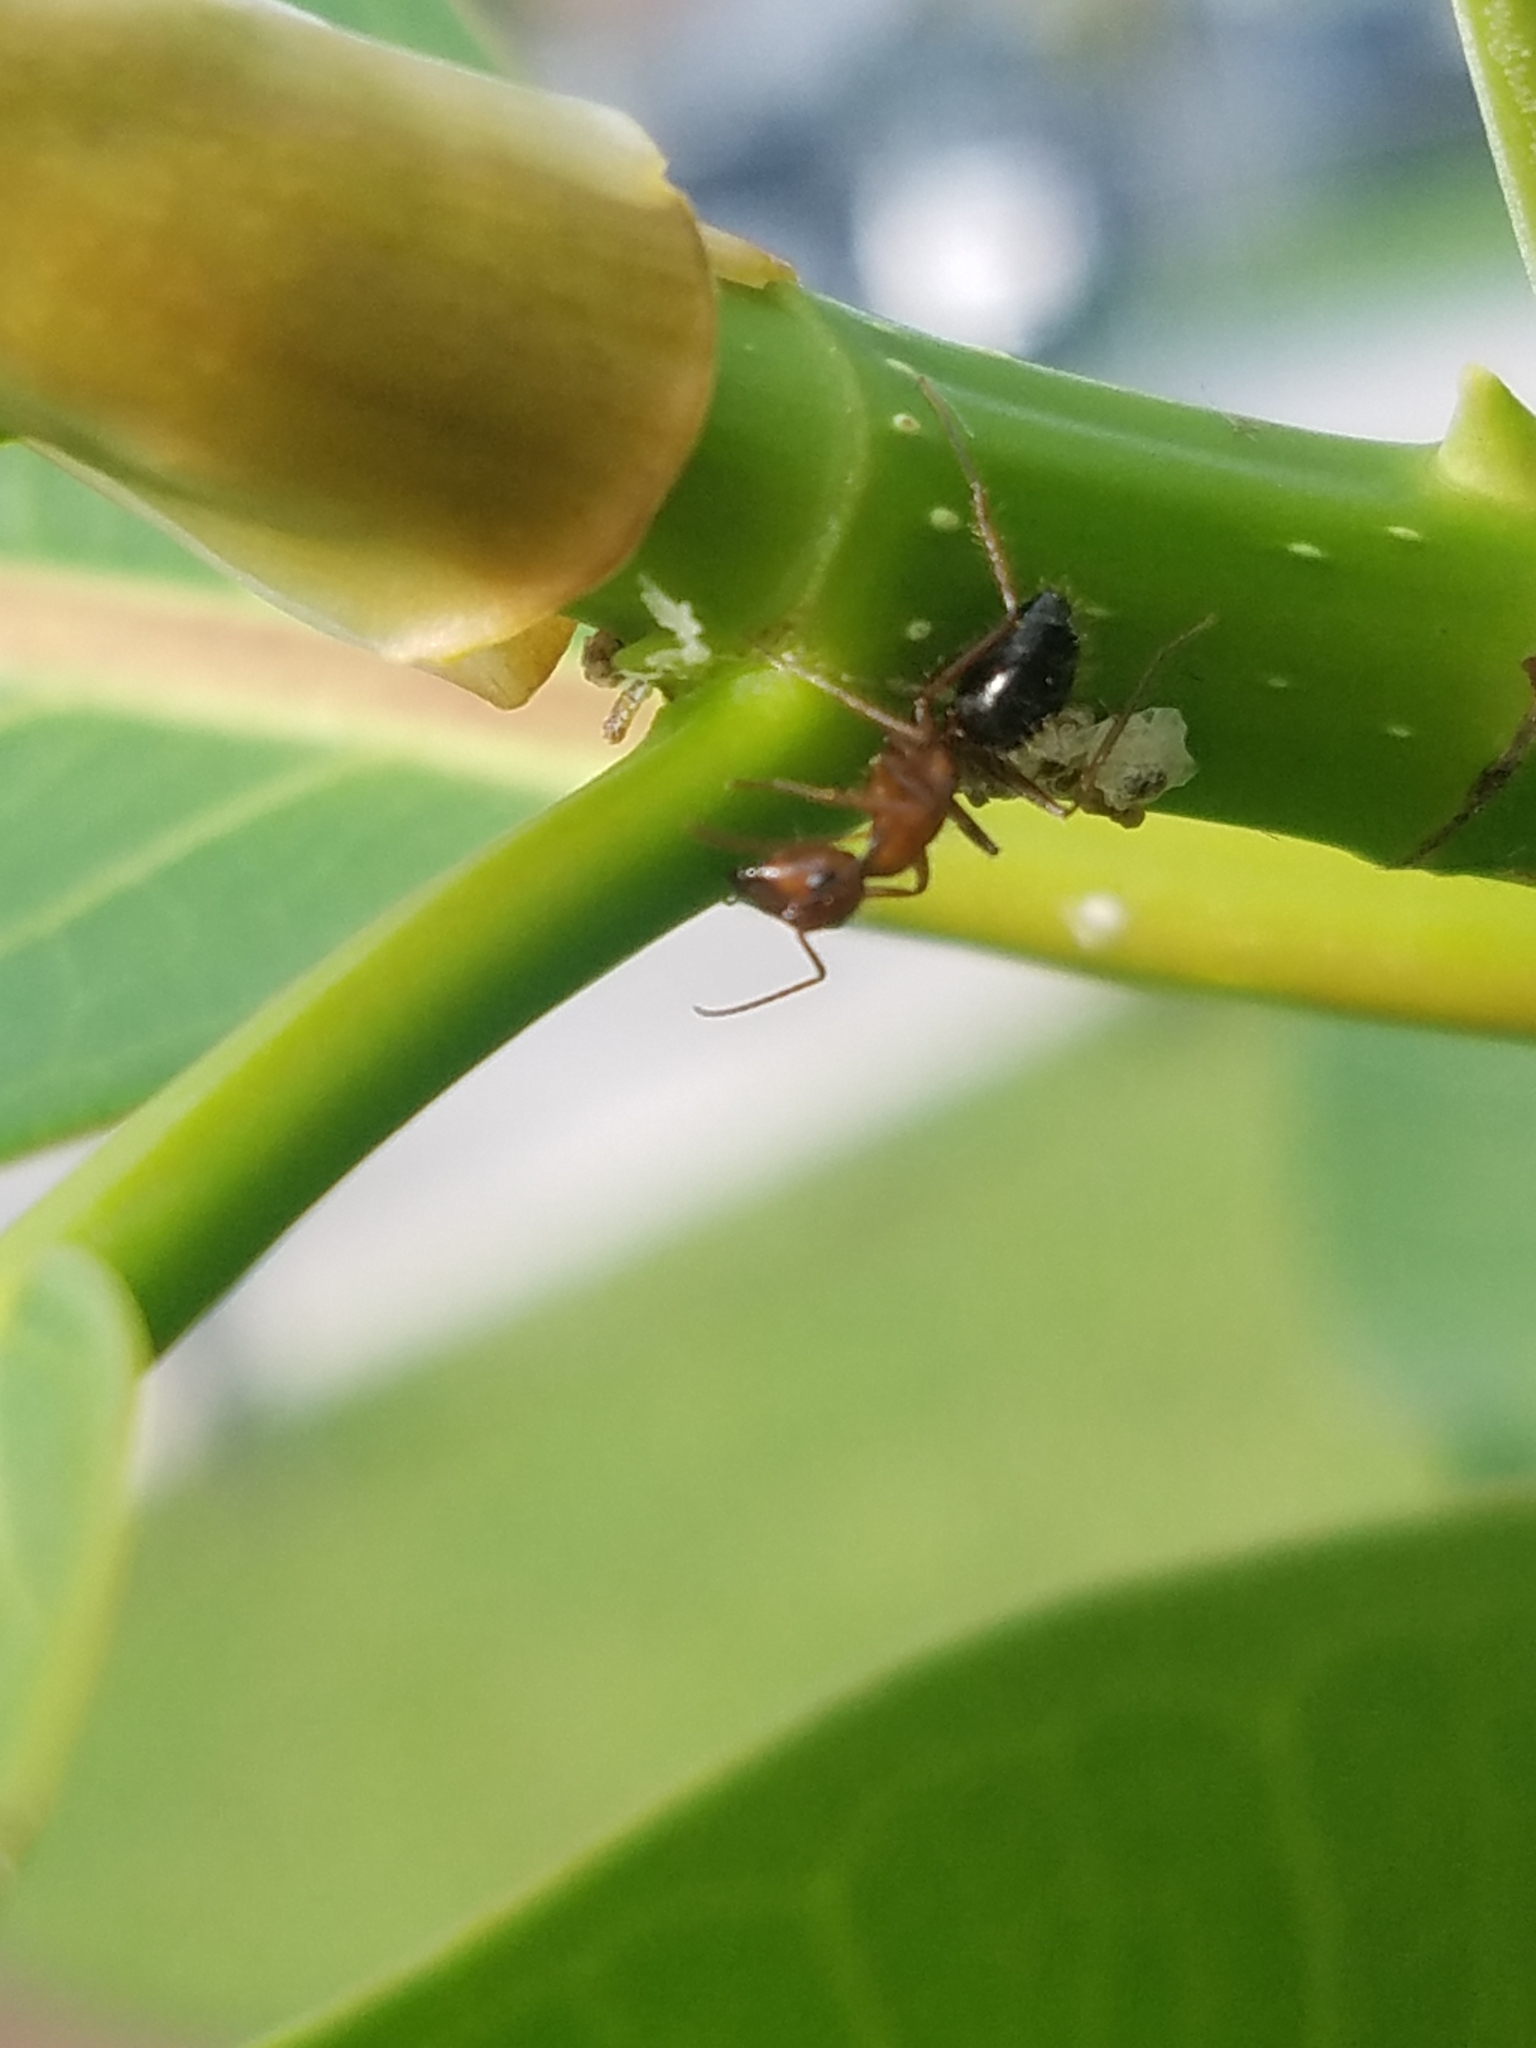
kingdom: Animalia
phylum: Arthropoda
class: Insecta
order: Hymenoptera
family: Formicidae
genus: Camponotus
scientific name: Camponotus floridanus
